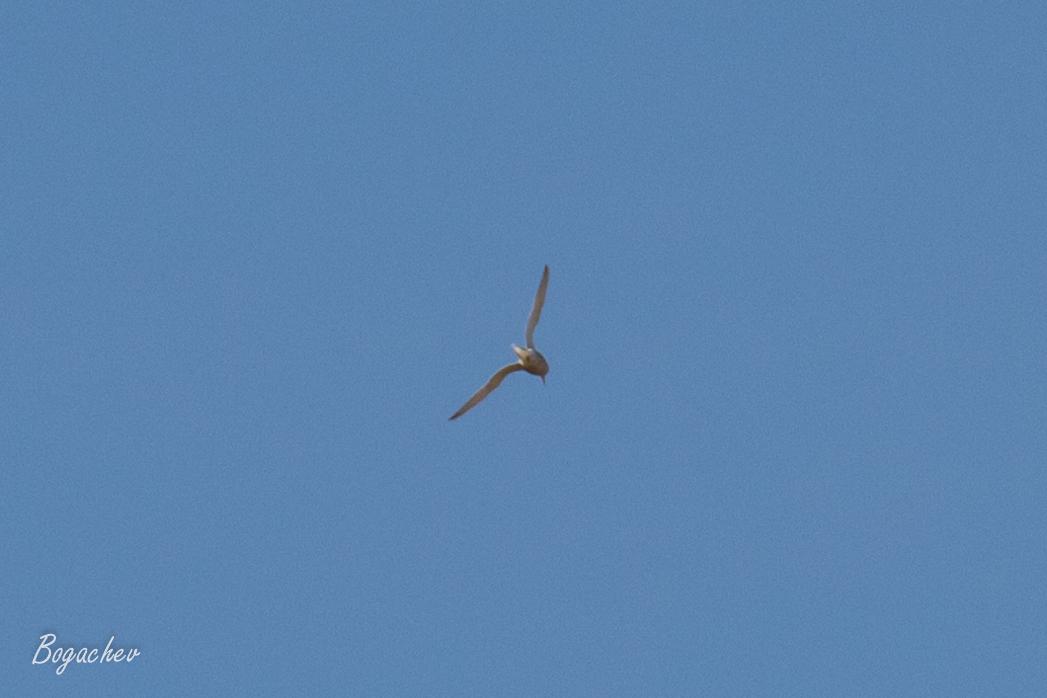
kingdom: Animalia
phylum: Chordata
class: Aves
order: Charadriiformes
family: Laridae
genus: Sterna
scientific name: Sterna hirundo
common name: Common tern
